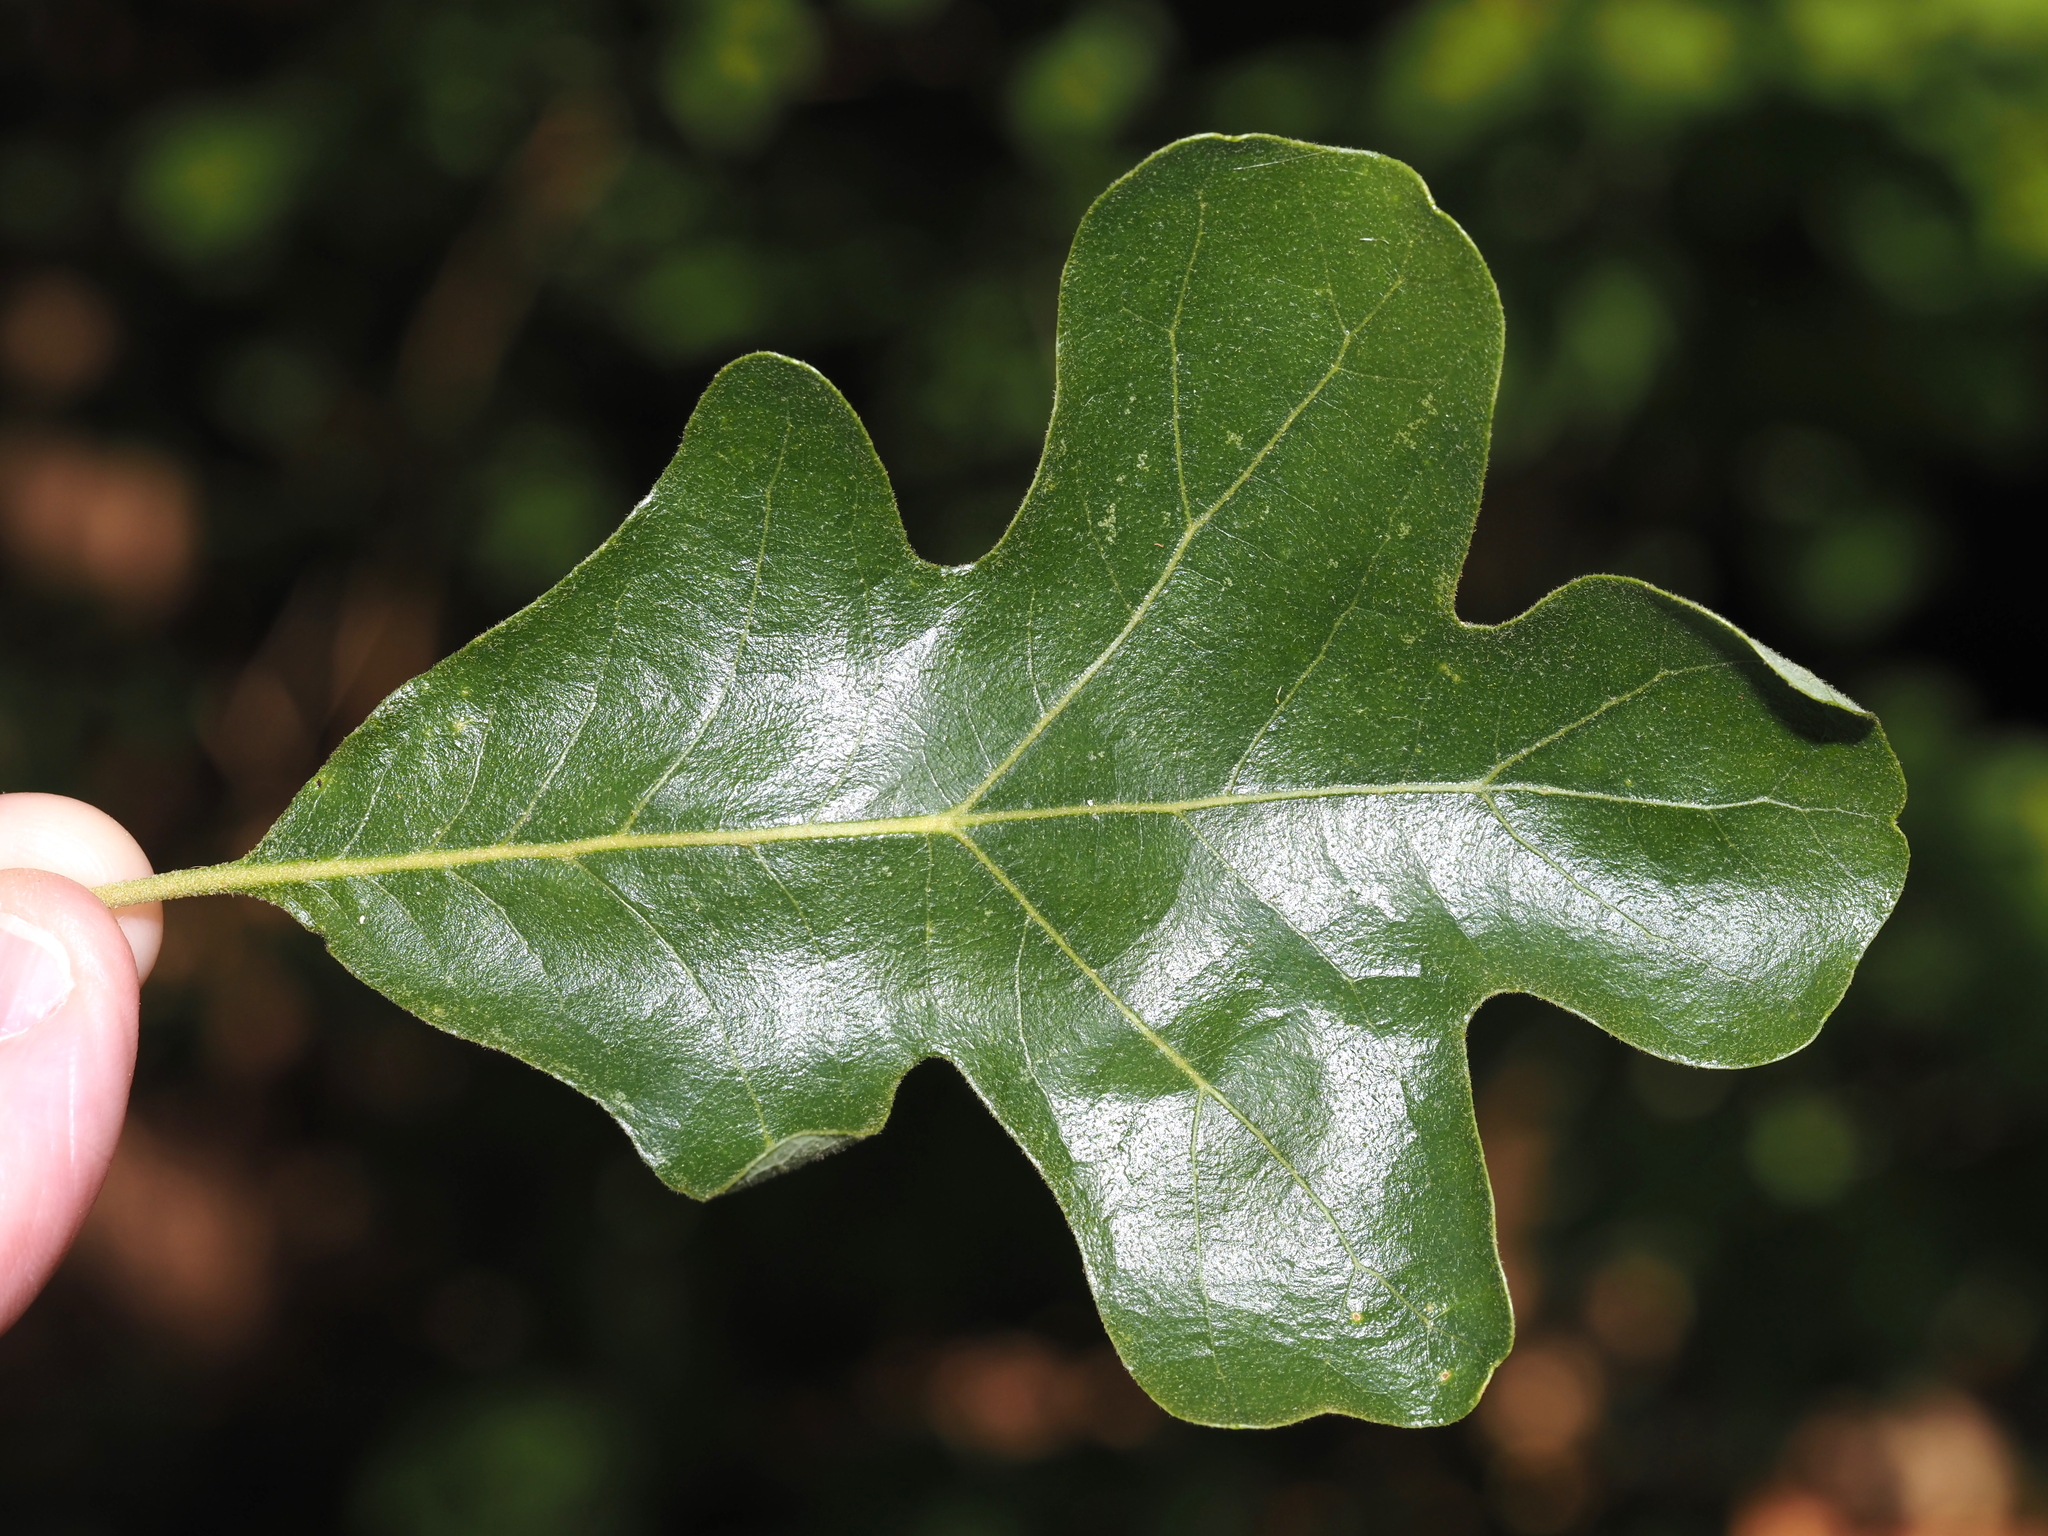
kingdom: Plantae
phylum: Tracheophyta
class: Magnoliopsida
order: Fagales
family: Fagaceae
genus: Quercus
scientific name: Quercus stellata
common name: Post oak
